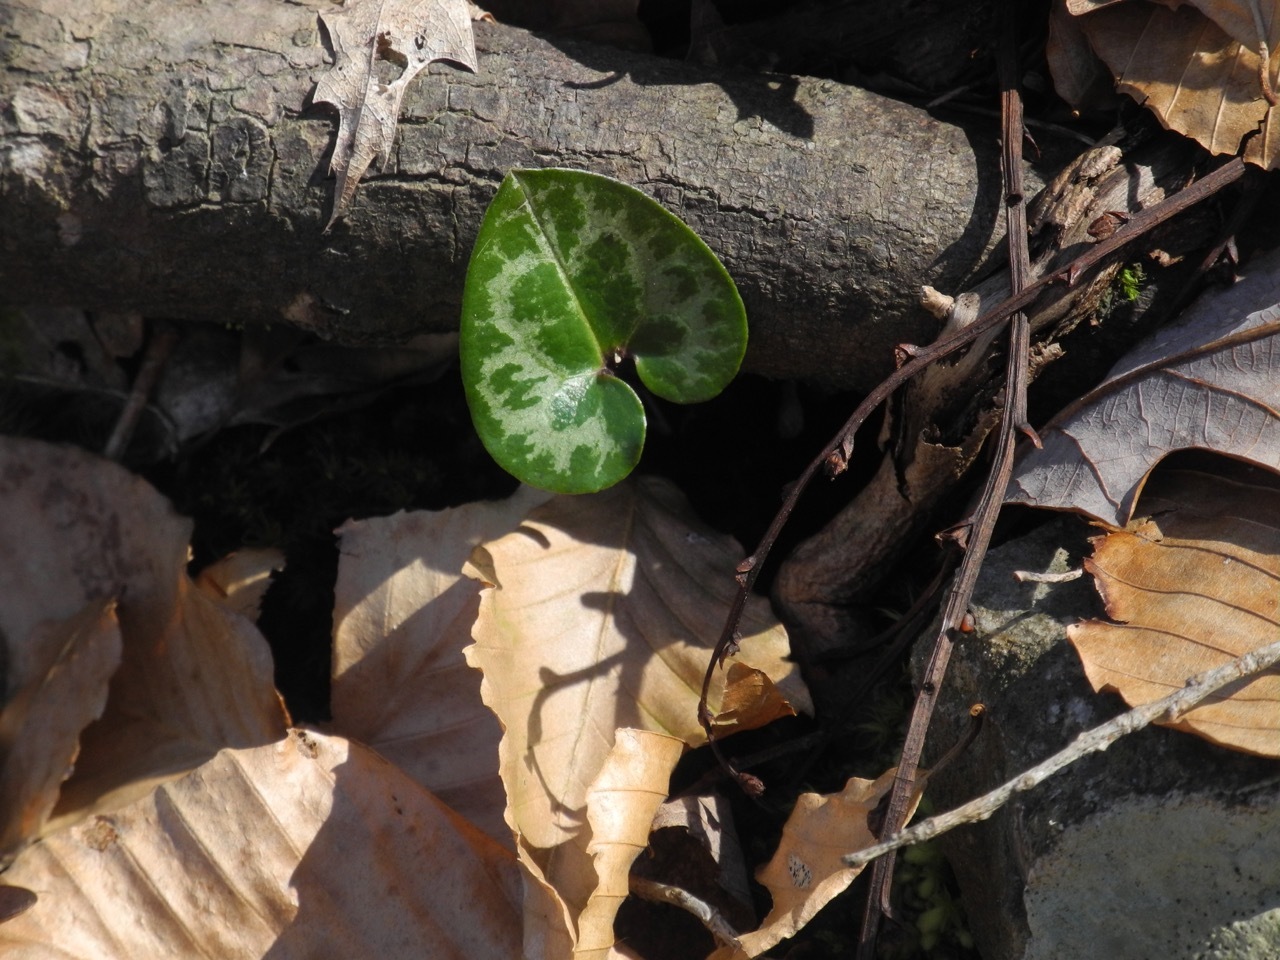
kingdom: Plantae
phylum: Tracheophyta
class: Magnoliopsida
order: Piperales
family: Aristolochiaceae
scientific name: Aristolochiaceae
